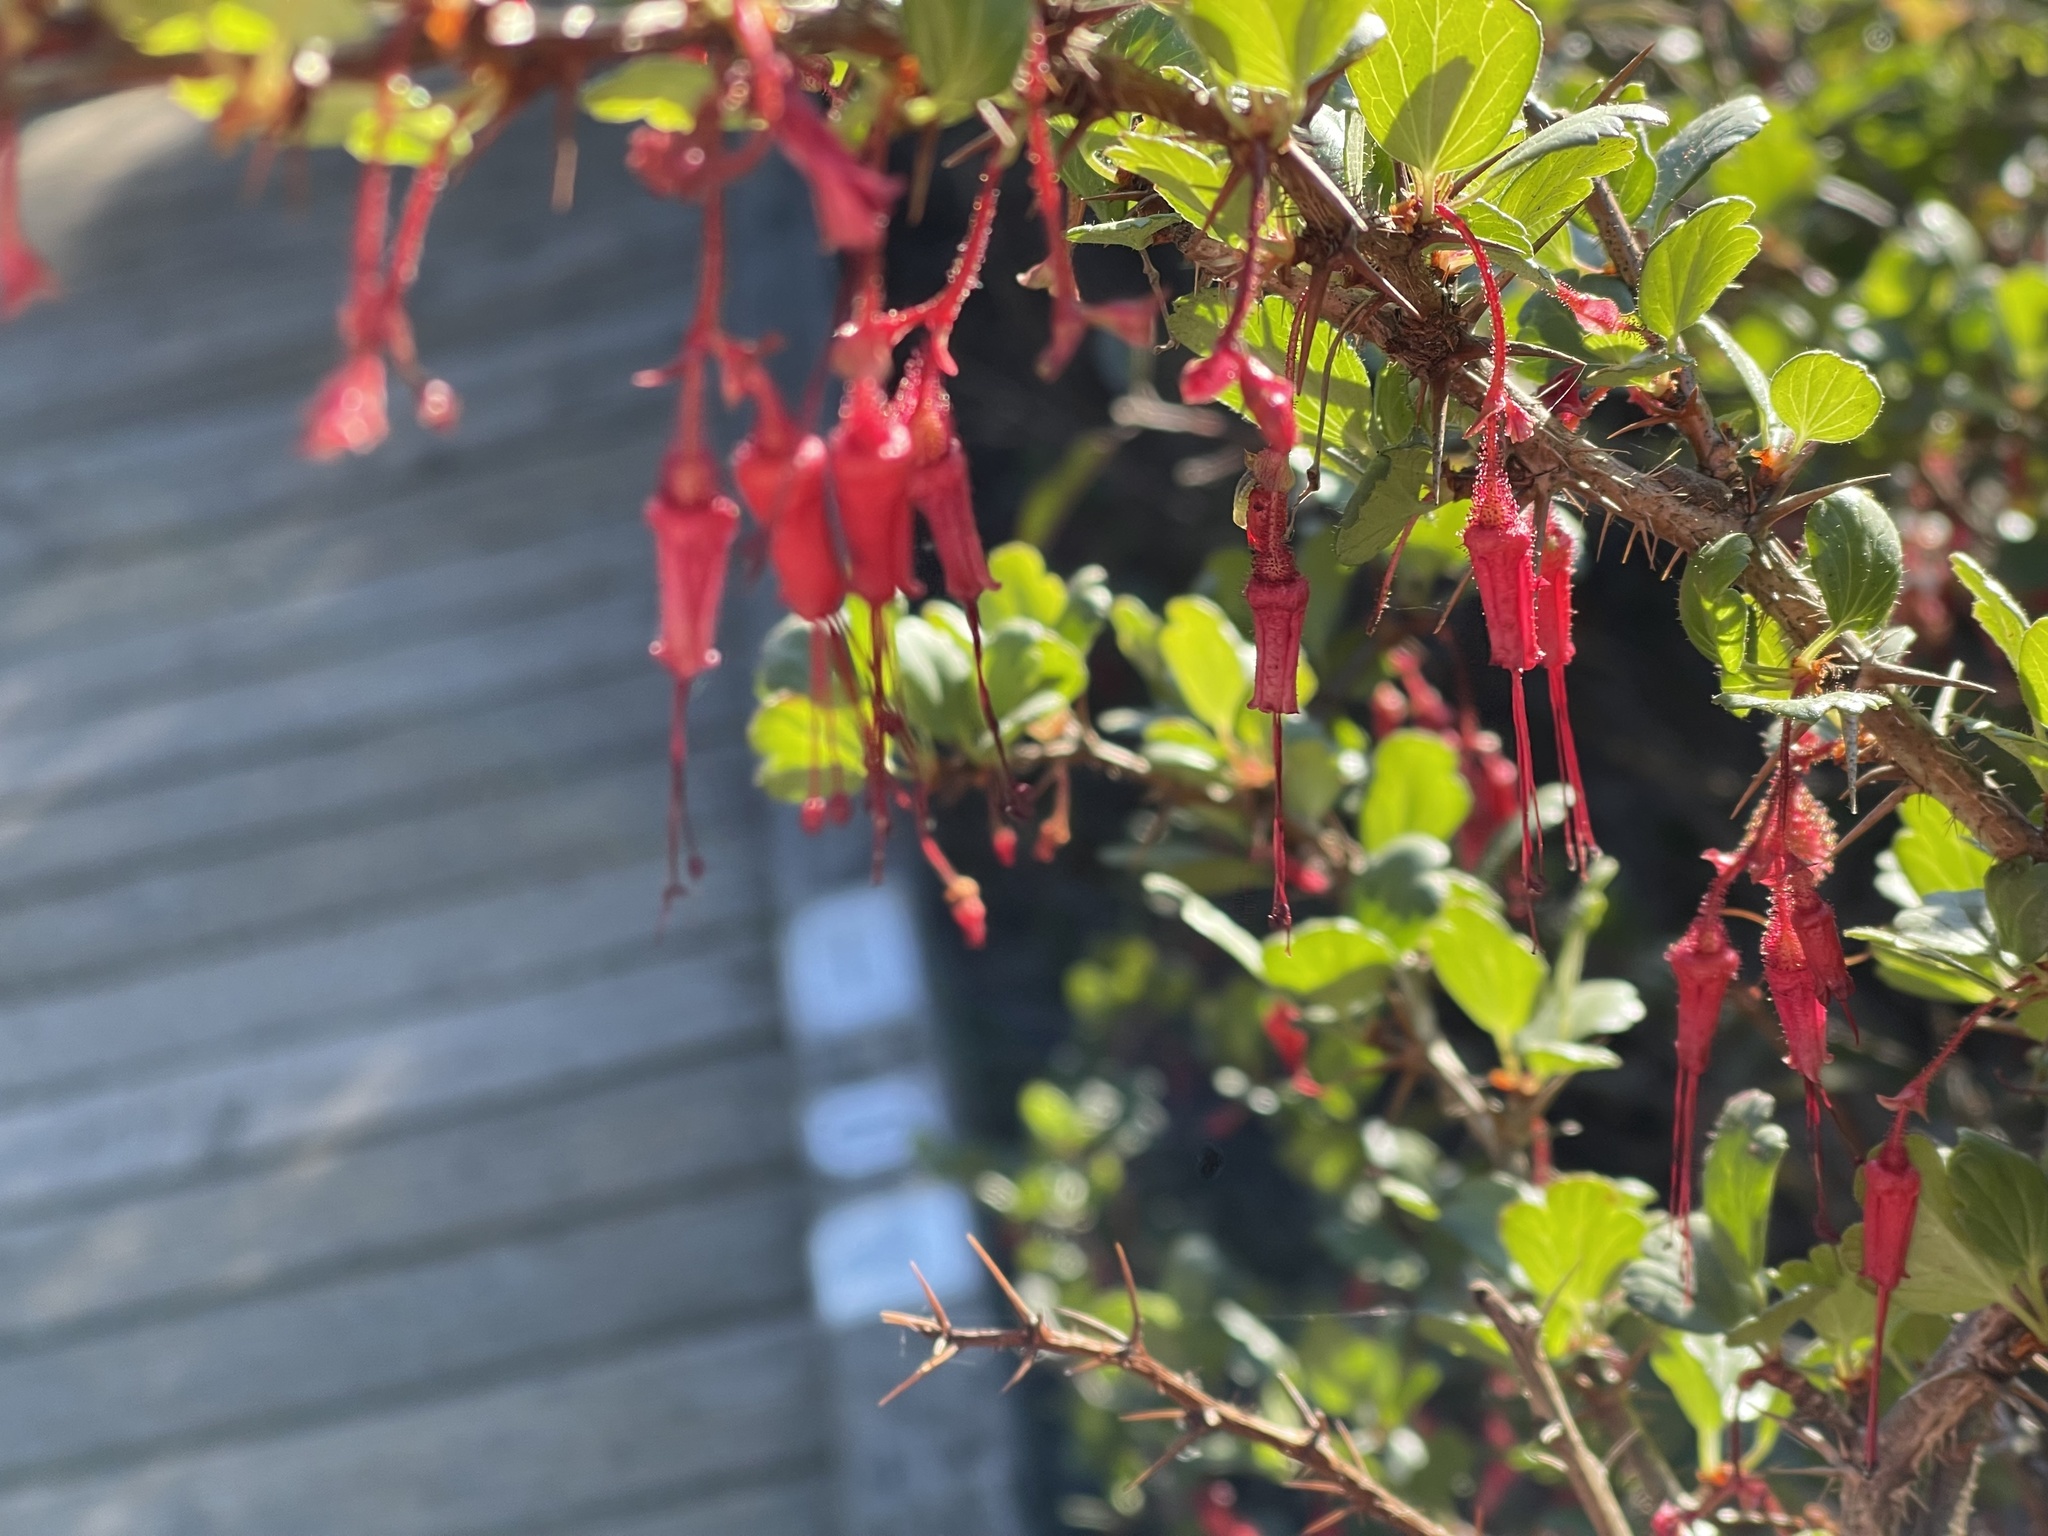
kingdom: Plantae
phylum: Tracheophyta
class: Magnoliopsida
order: Saxifragales
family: Grossulariaceae
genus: Ribes
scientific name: Ribes speciosum
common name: Fuchsia-flower gooseberry
